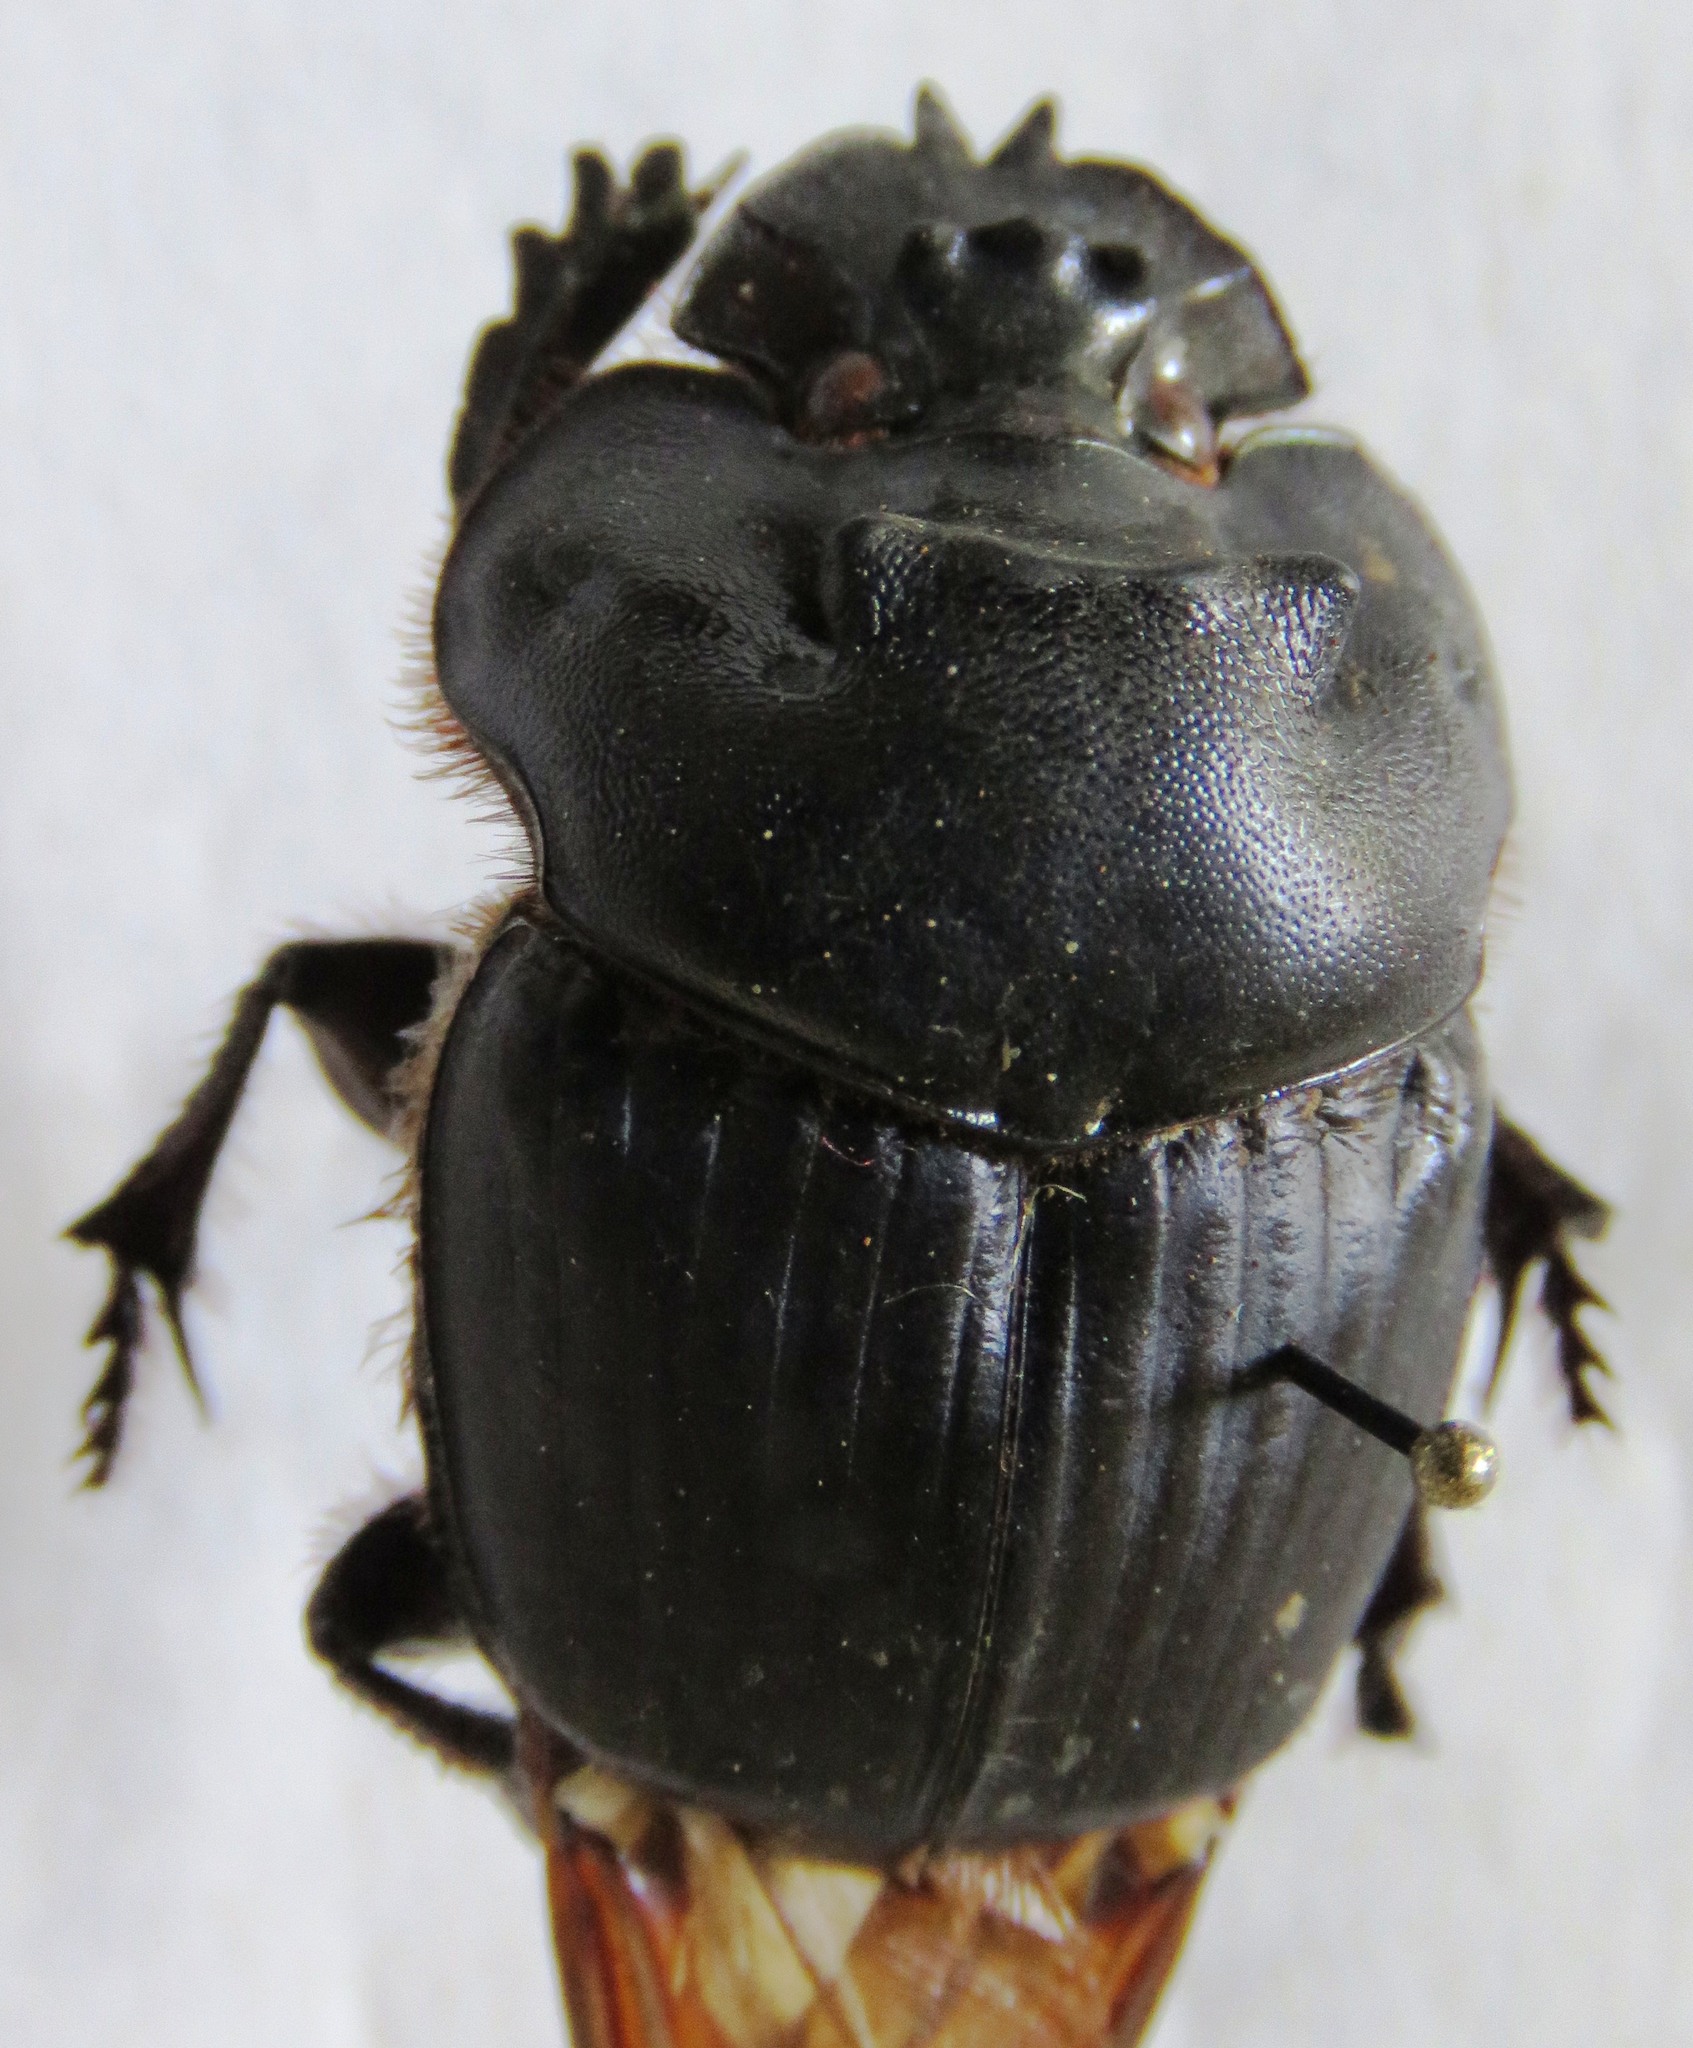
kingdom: Animalia
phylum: Arthropoda
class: Insecta
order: Coleoptera
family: Scarabaeidae
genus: Coprophanaeus
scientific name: Coprophanaeus boucardi
